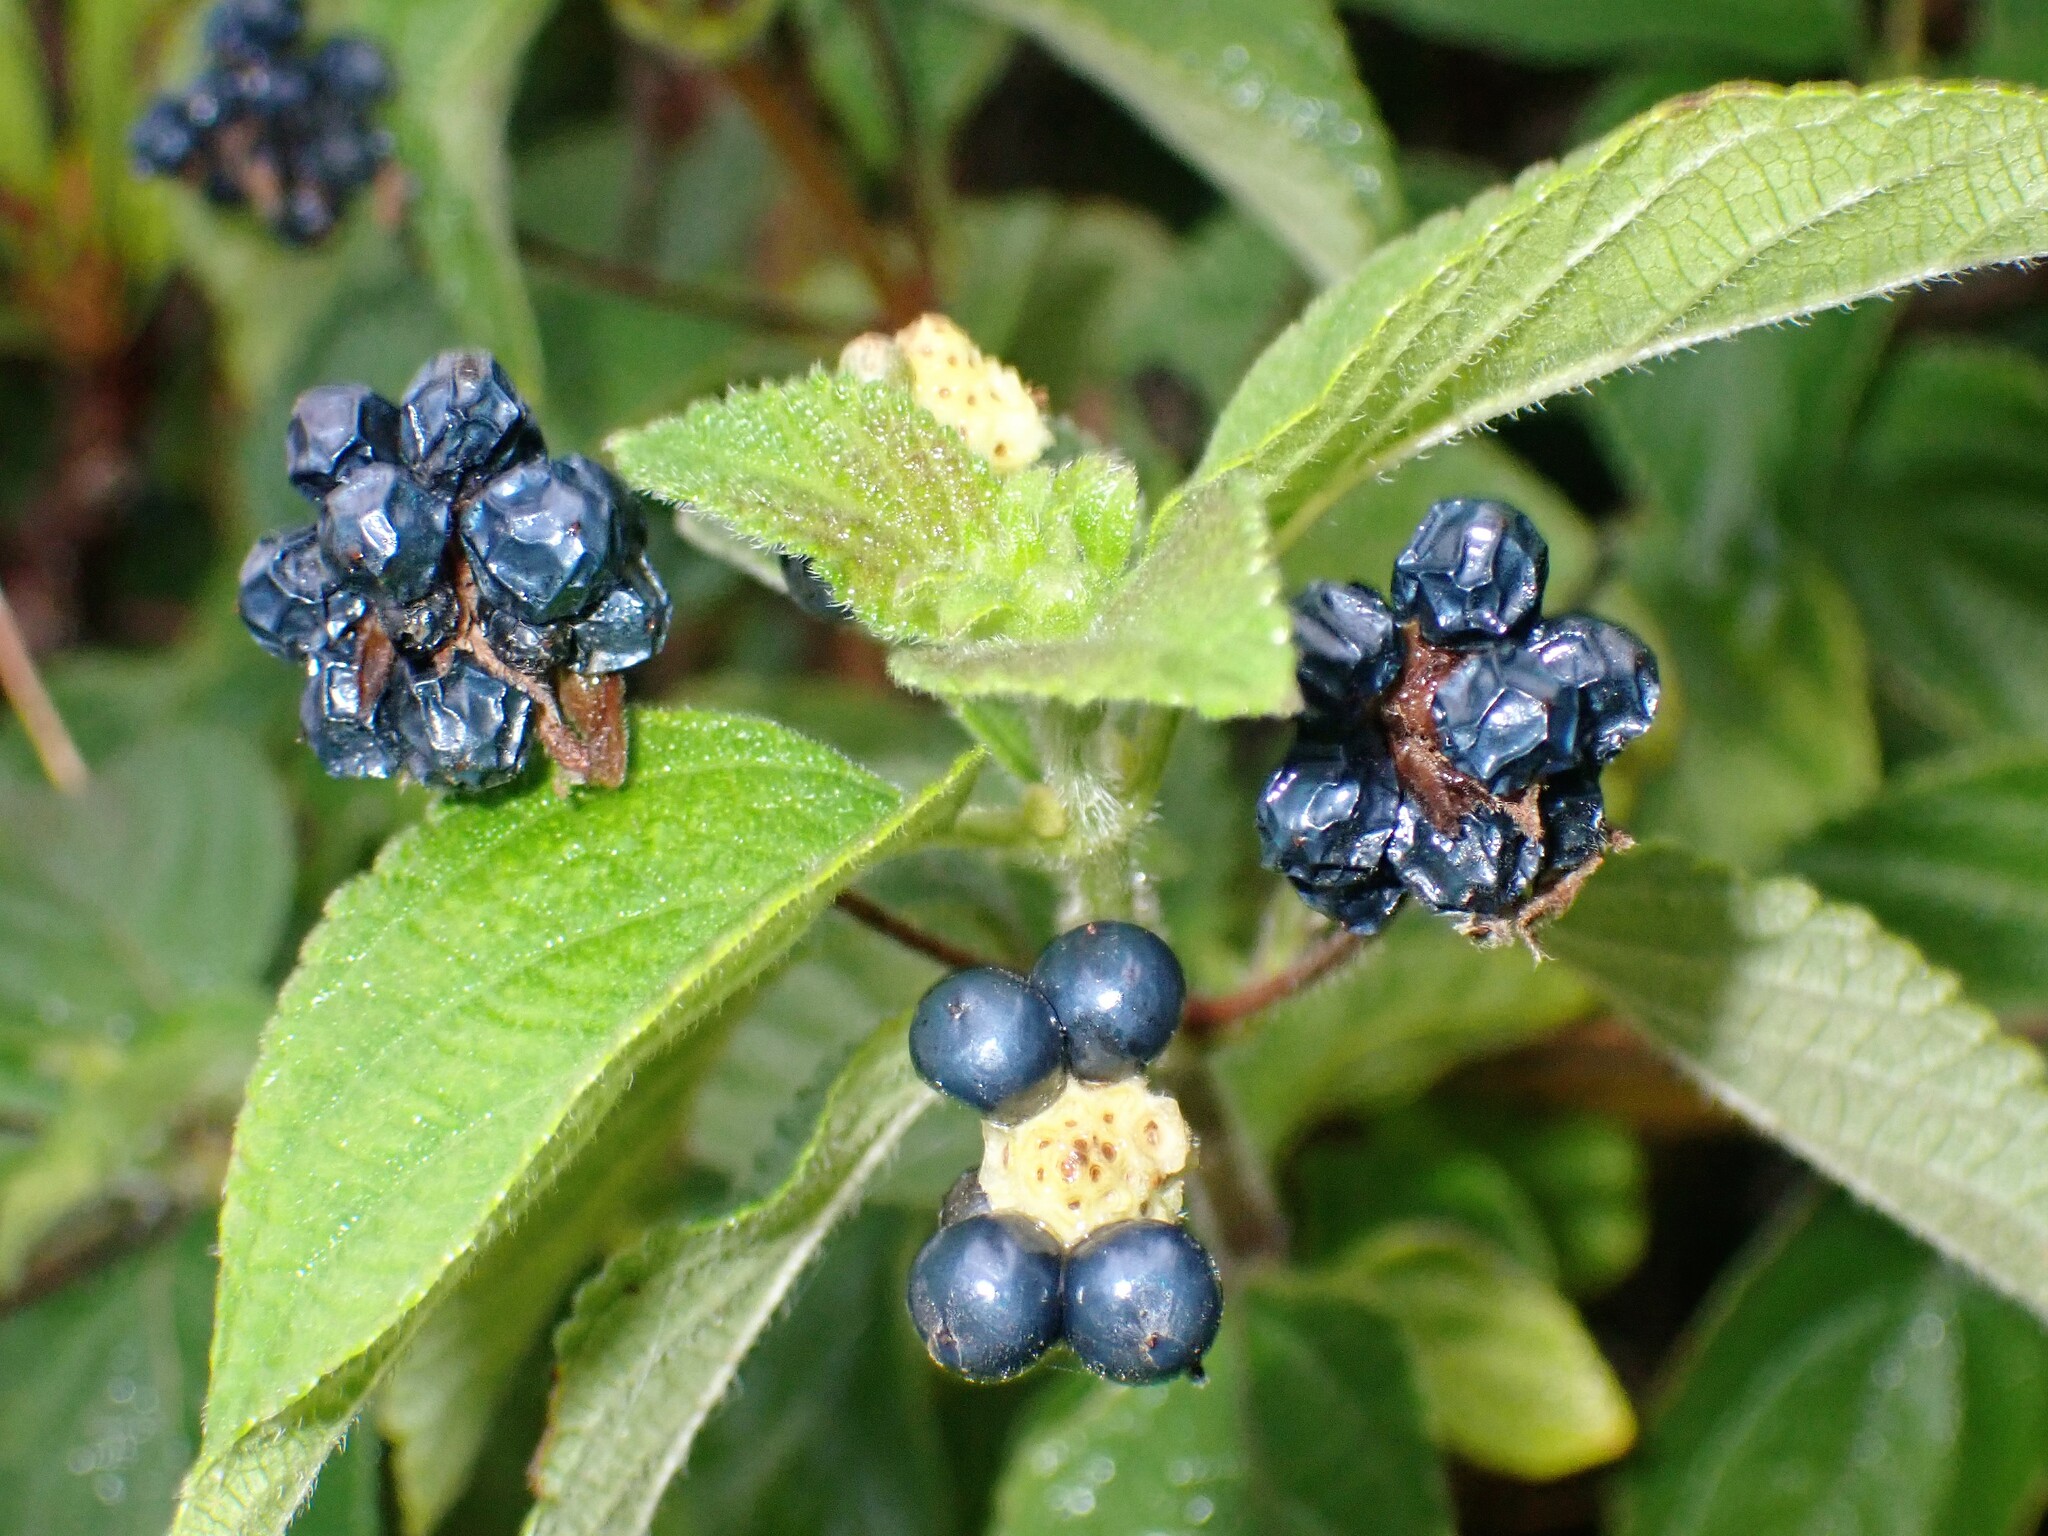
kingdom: Plantae
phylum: Tracheophyta
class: Magnoliopsida
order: Lamiales
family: Verbenaceae
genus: Lantana
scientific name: Lantana camara
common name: Lantana
